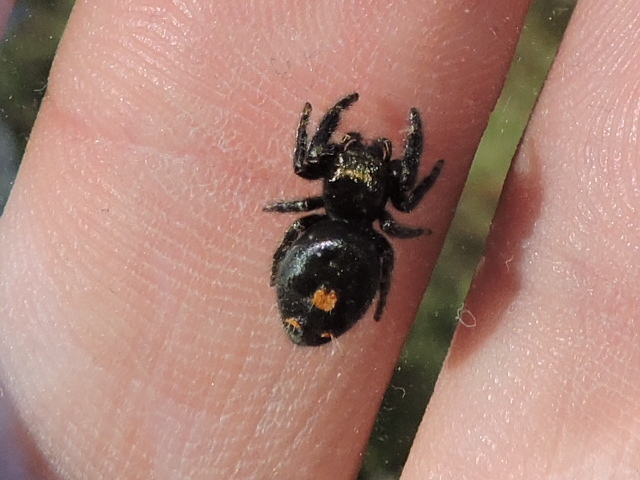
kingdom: Animalia
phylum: Arthropoda
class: Arachnida
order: Araneae
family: Salticidae
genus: Phidippus
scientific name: Phidippus audax
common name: Bold jumper
